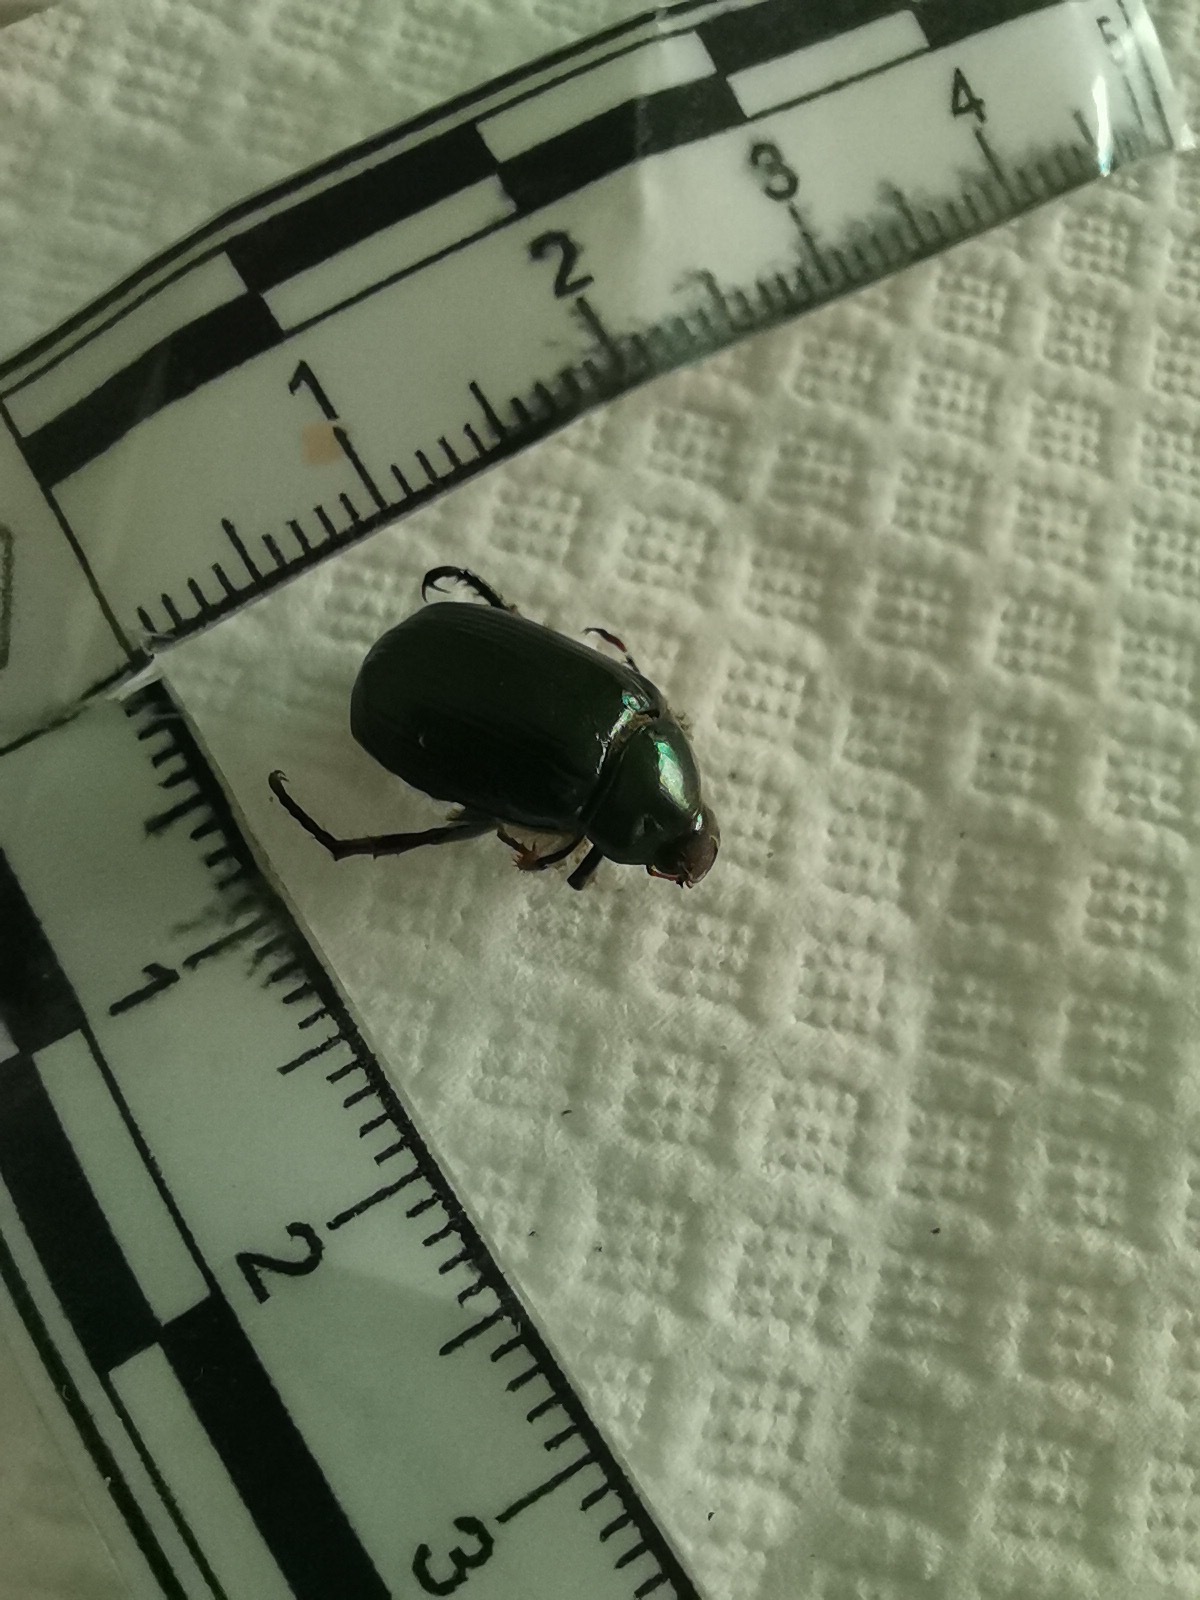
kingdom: Animalia
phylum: Arthropoda
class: Insecta
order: Coleoptera
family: Scarabaeidae
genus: Paranomala
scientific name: Paranomala cincta
